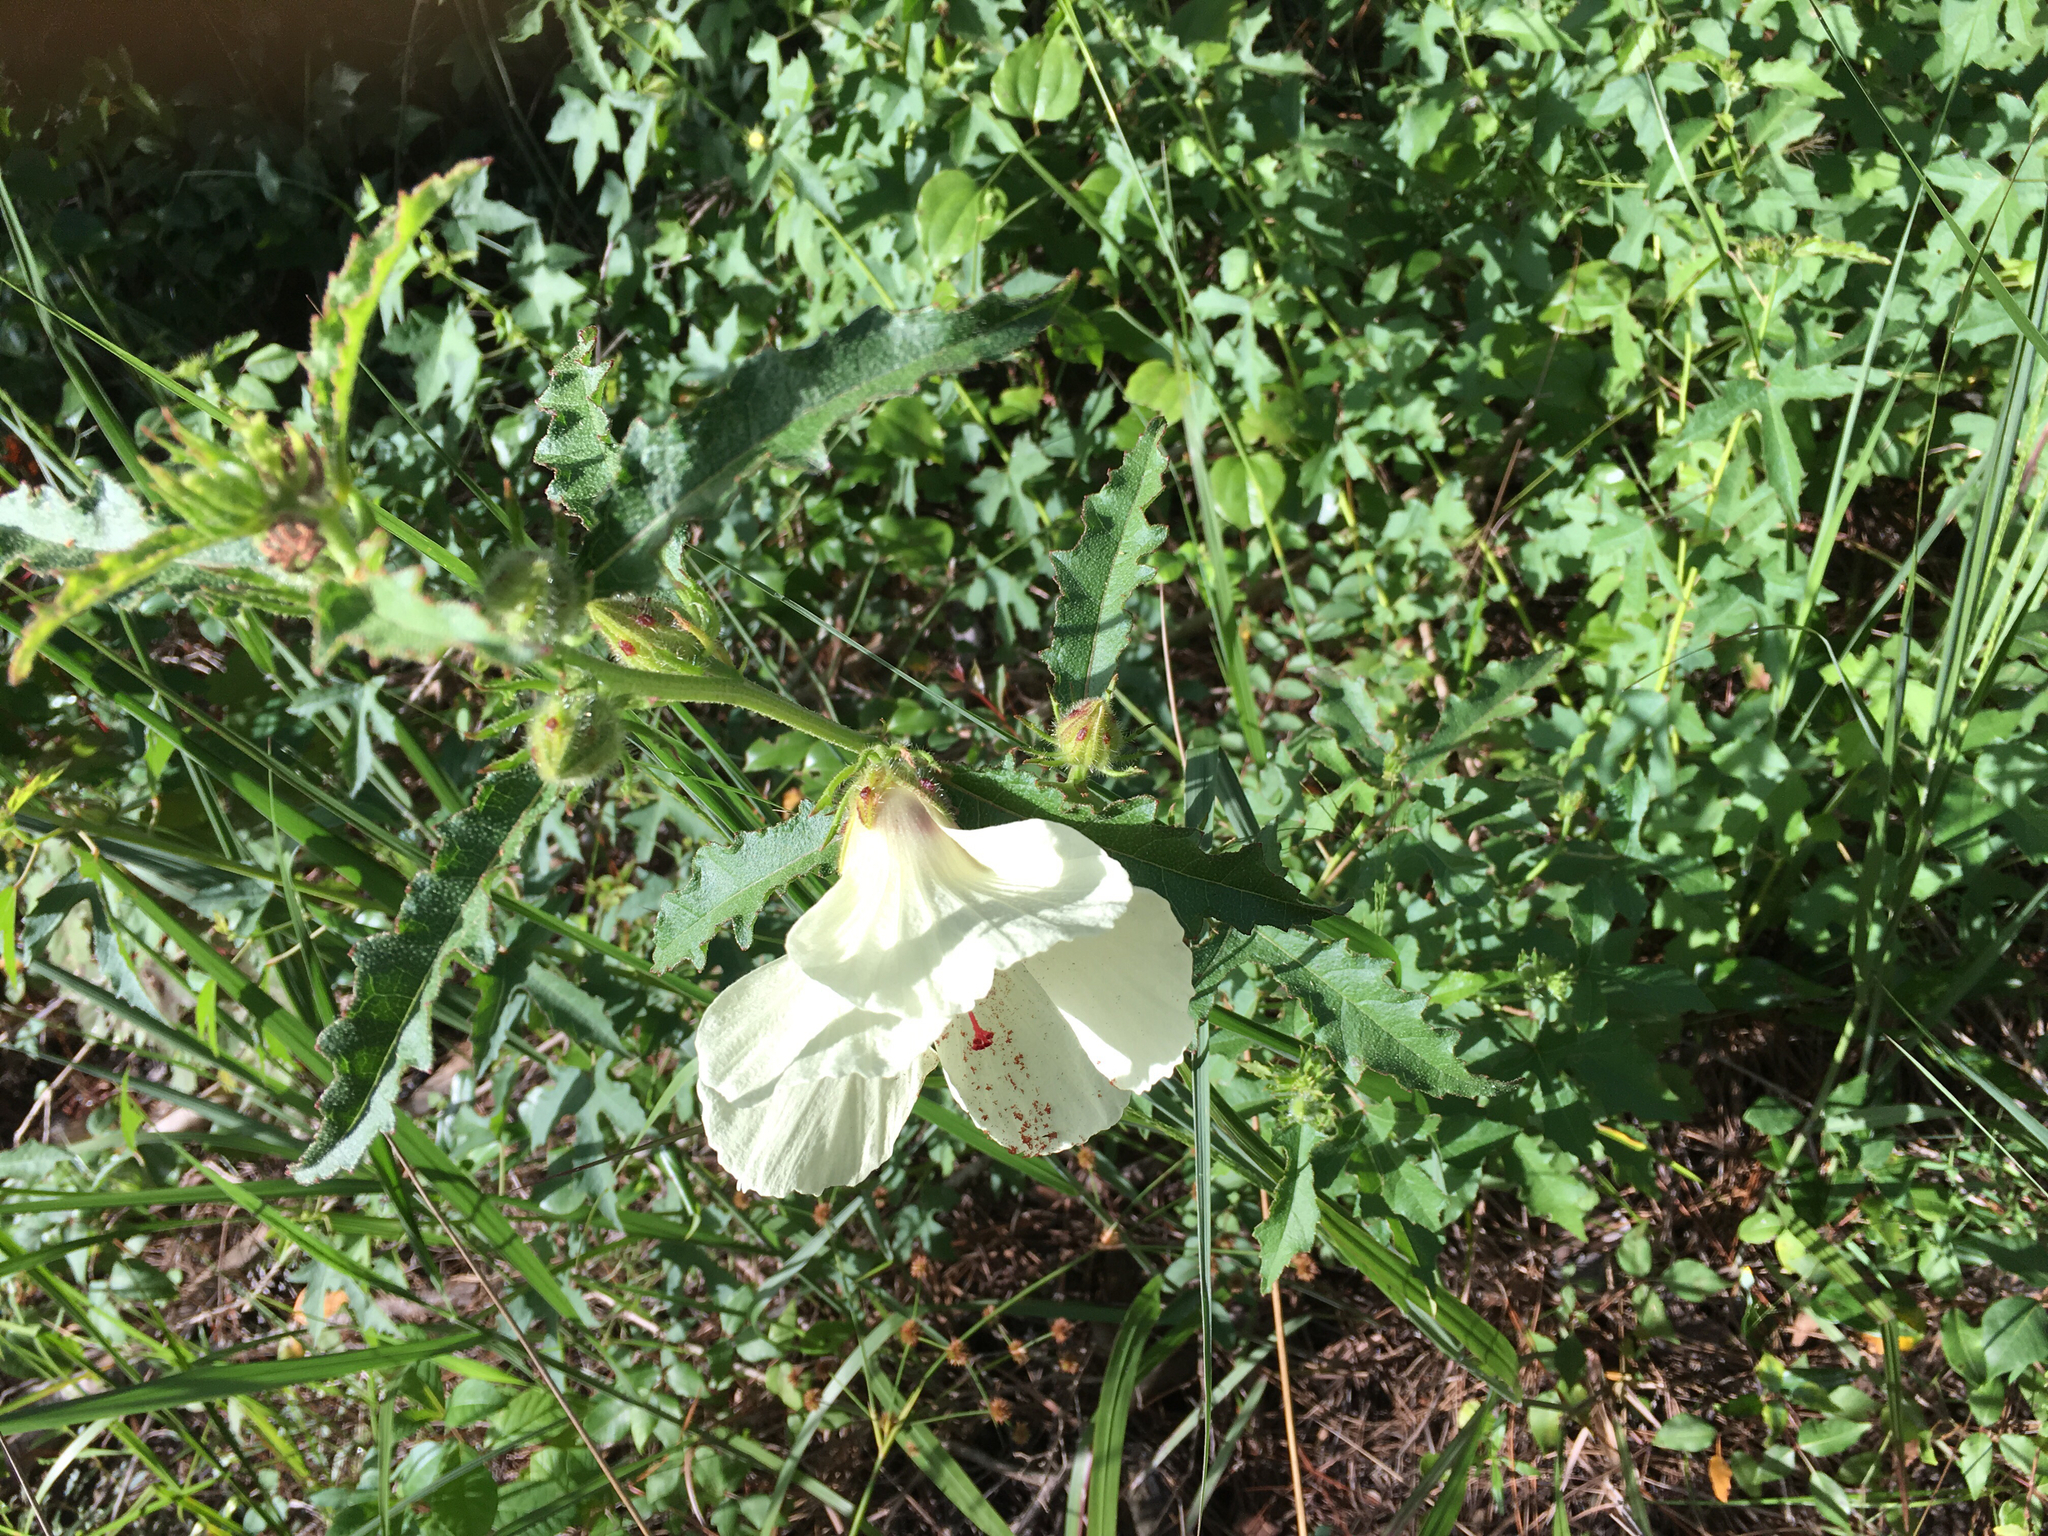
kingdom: Plantae
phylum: Tracheophyta
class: Magnoliopsida
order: Malvales
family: Malvaceae
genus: Hibiscus
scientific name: Hibiscus aculeatus
